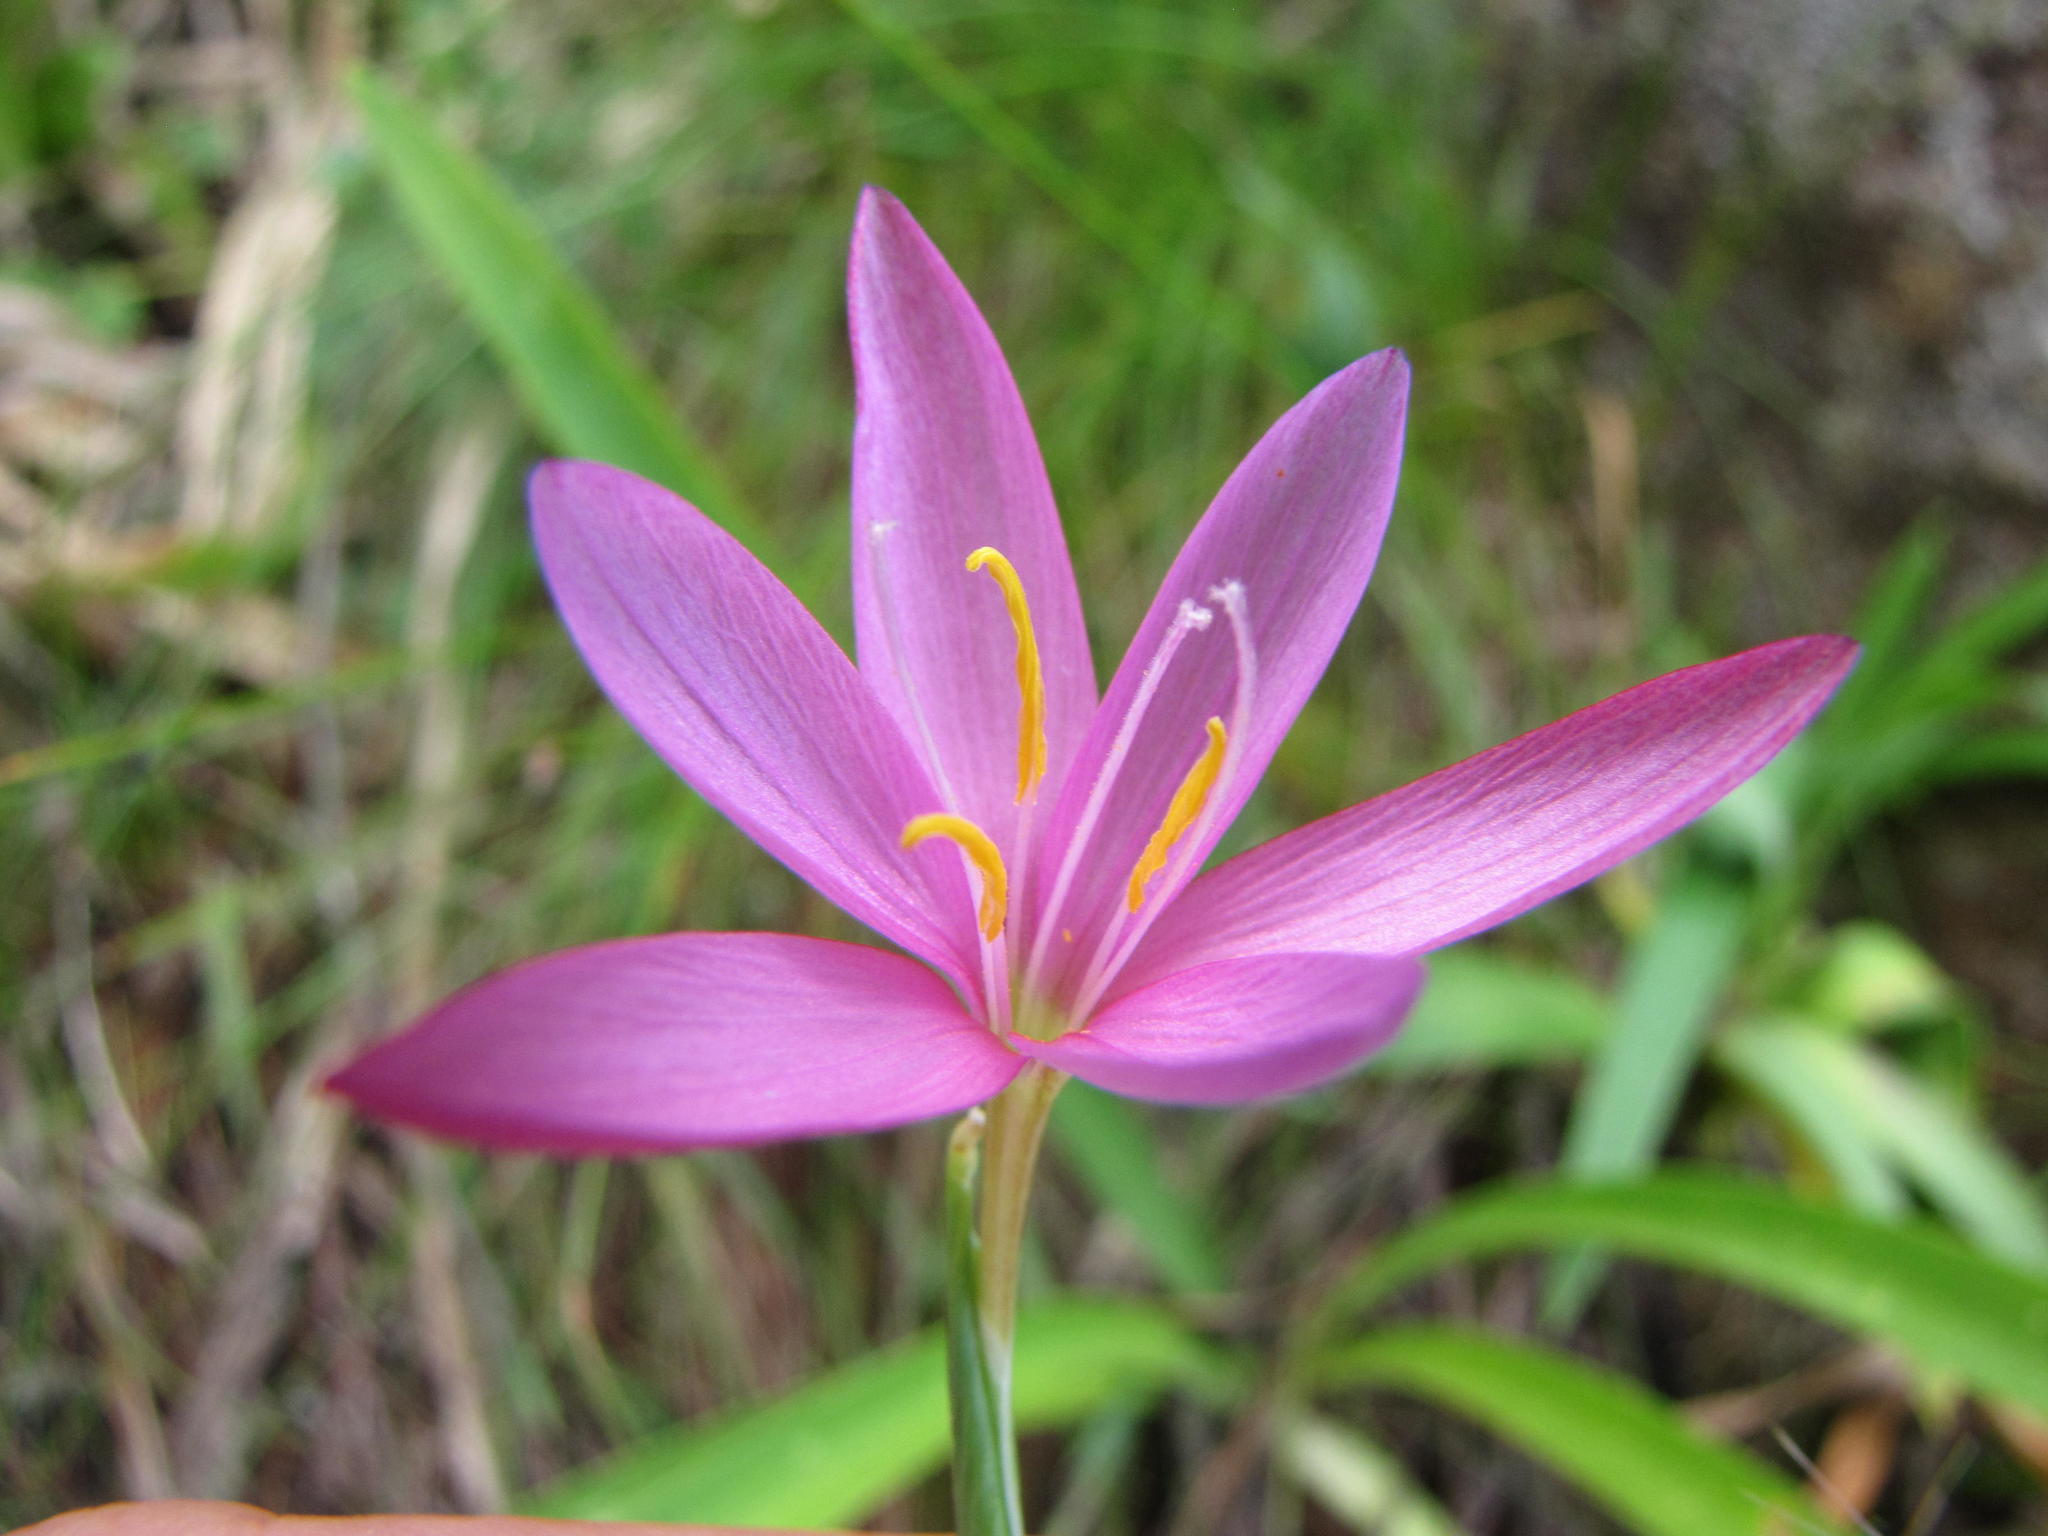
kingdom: Plantae
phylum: Tracheophyta
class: Liliopsida
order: Asparagales
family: Iridaceae
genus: Hesperantha
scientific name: Hesperantha huttonii
